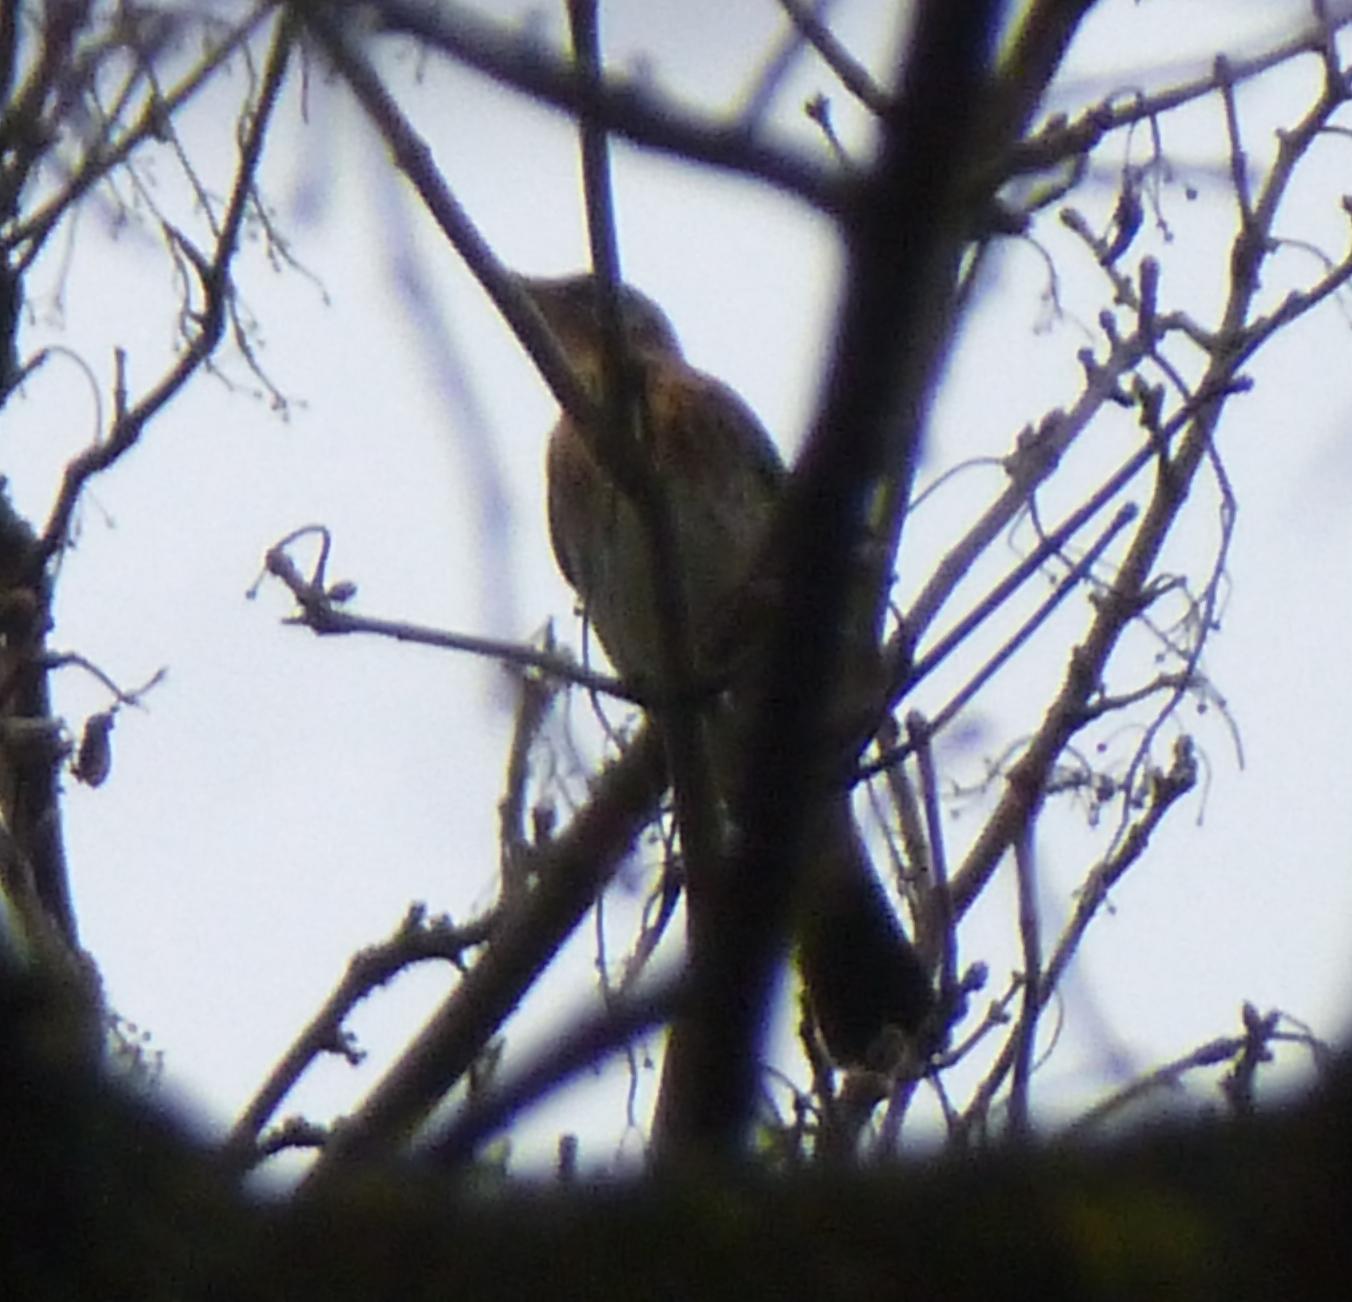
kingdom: Animalia
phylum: Chordata
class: Aves
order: Passeriformes
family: Turdidae
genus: Turdus
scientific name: Turdus pilaris
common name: Fieldfare
